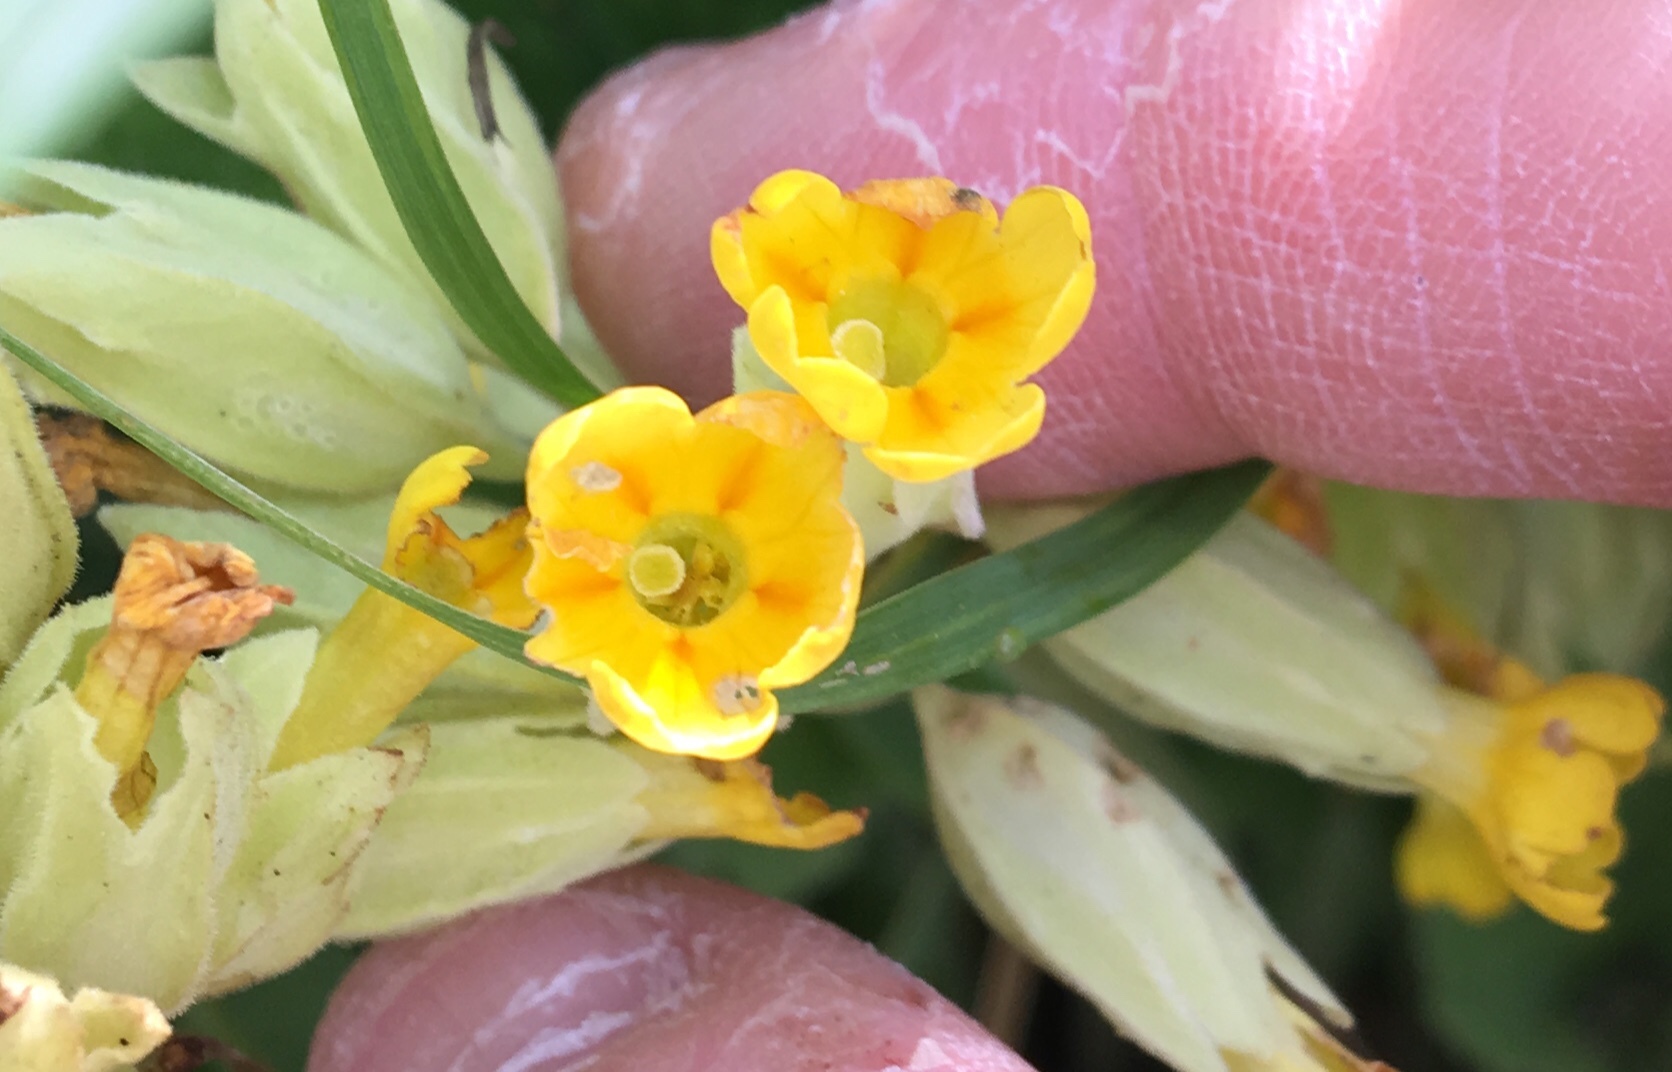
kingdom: Plantae
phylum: Tracheophyta
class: Magnoliopsida
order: Ericales
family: Primulaceae
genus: Primula
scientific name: Primula veris
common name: Cowslip
